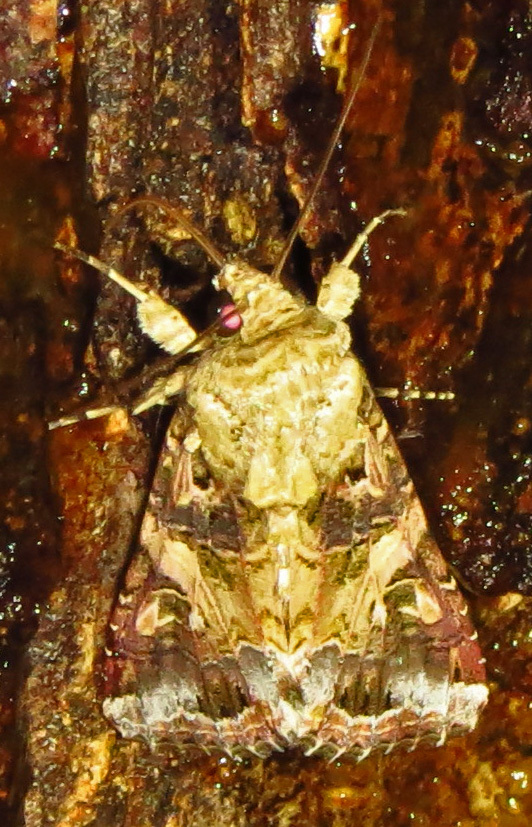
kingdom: Animalia
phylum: Arthropoda
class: Insecta
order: Lepidoptera
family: Noctuidae
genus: Spodoptera
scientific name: Spodoptera ornithogalli
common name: Yellow-striped armyworm
